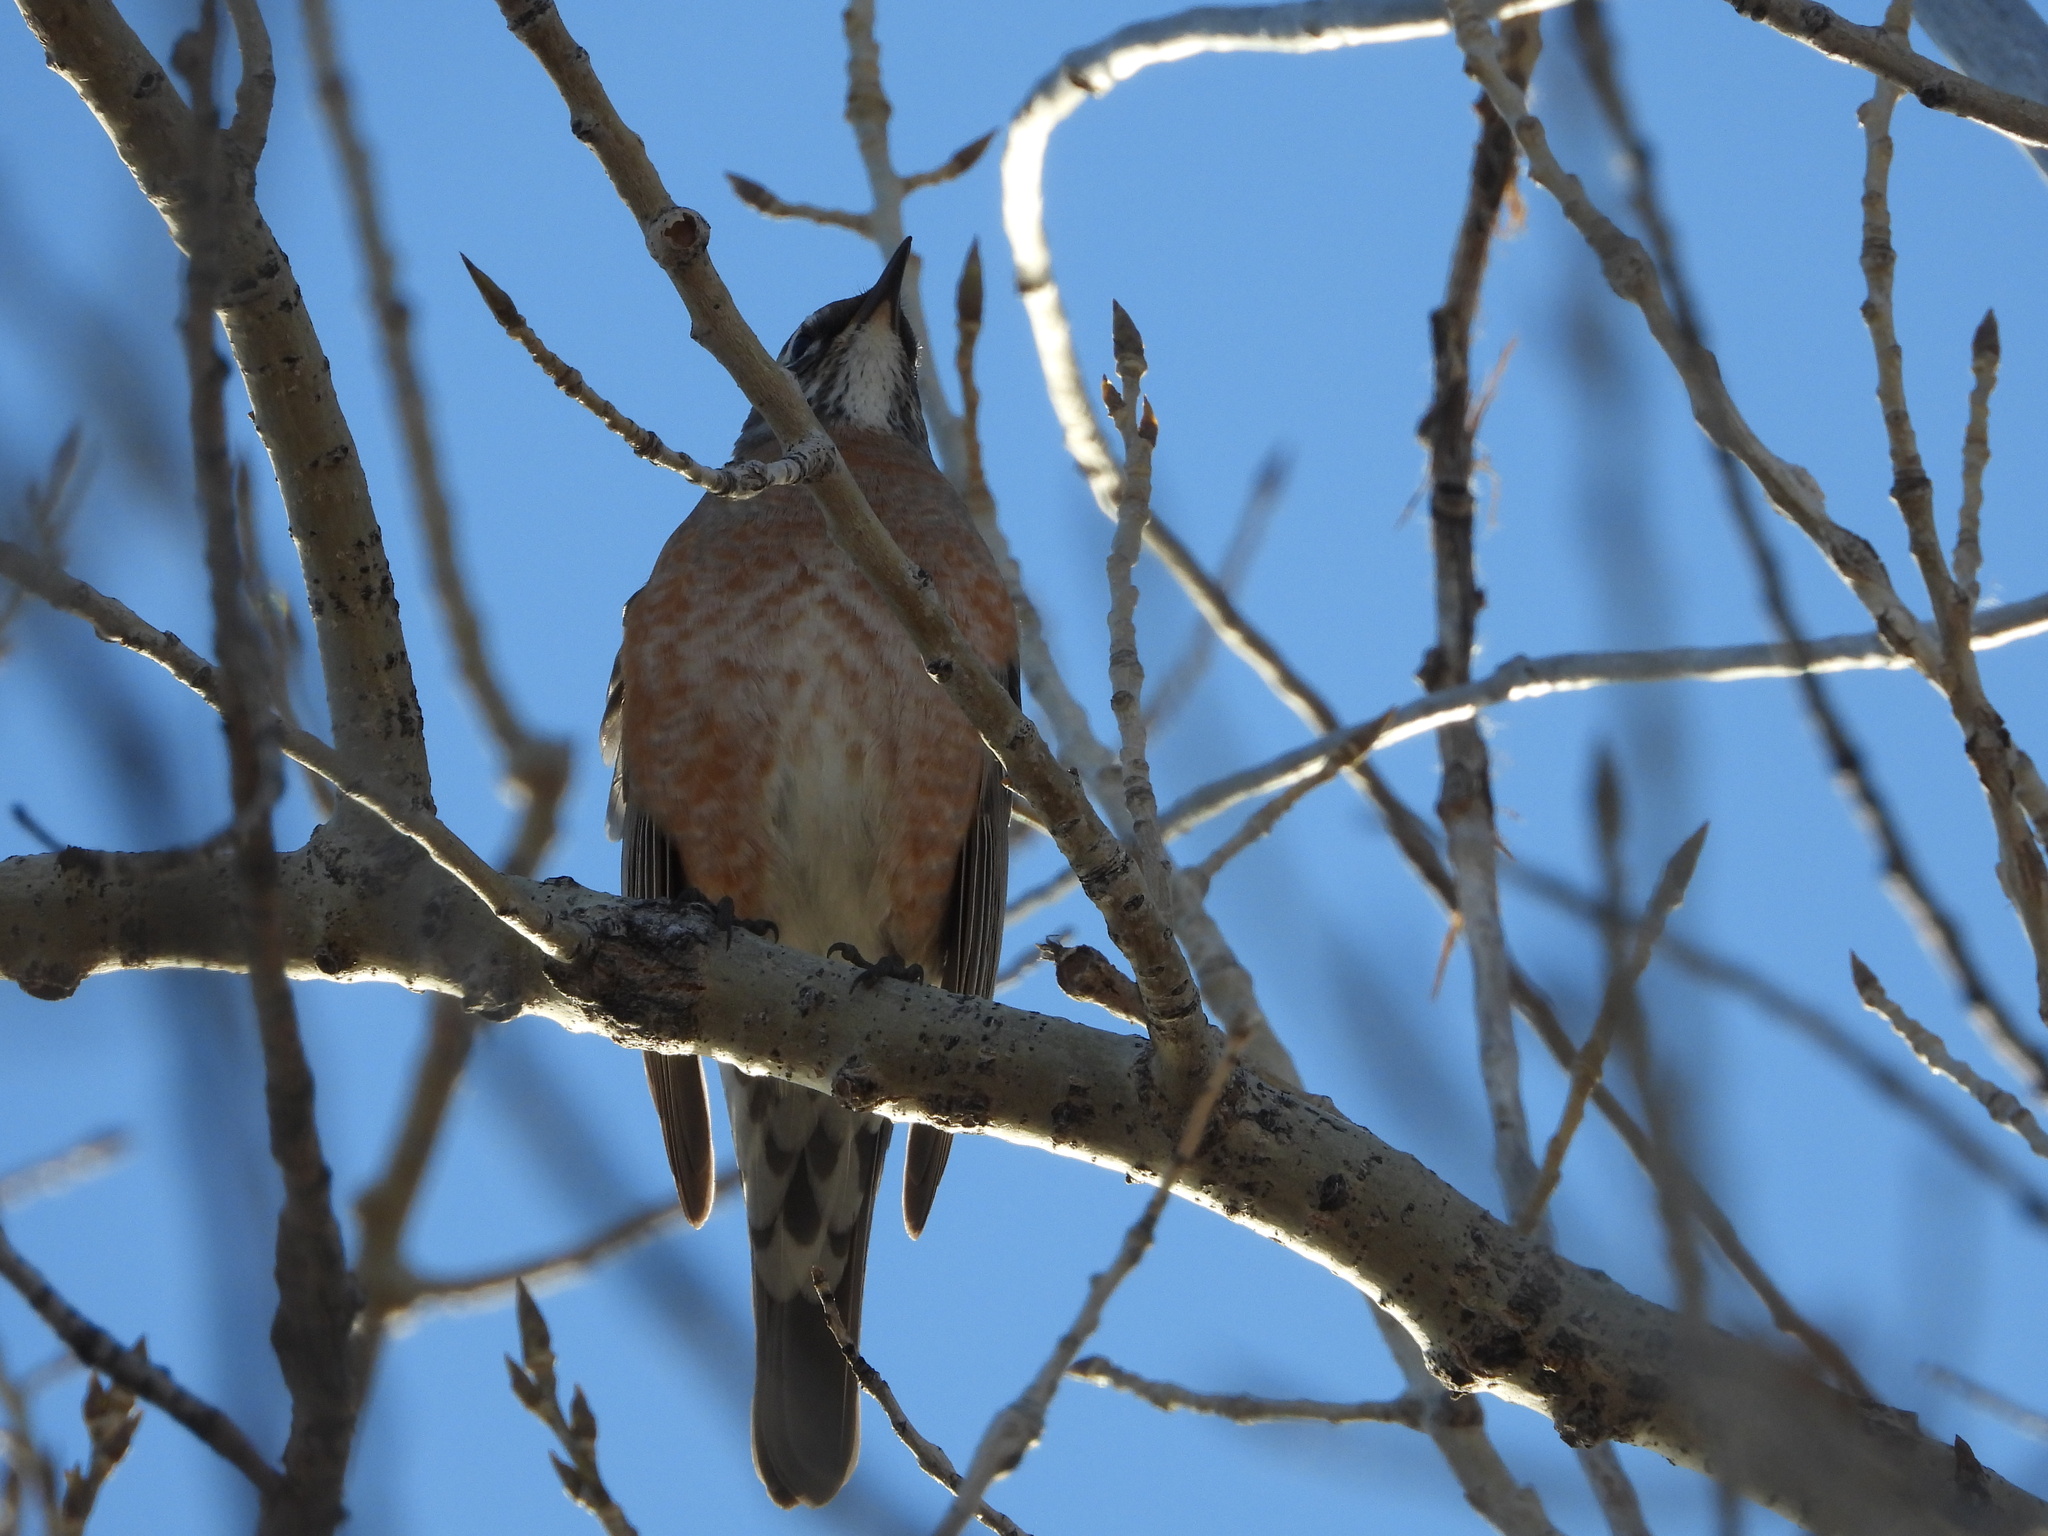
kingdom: Animalia
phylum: Chordata
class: Aves
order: Passeriformes
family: Turdidae
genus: Turdus
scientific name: Turdus migratorius
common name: American robin
